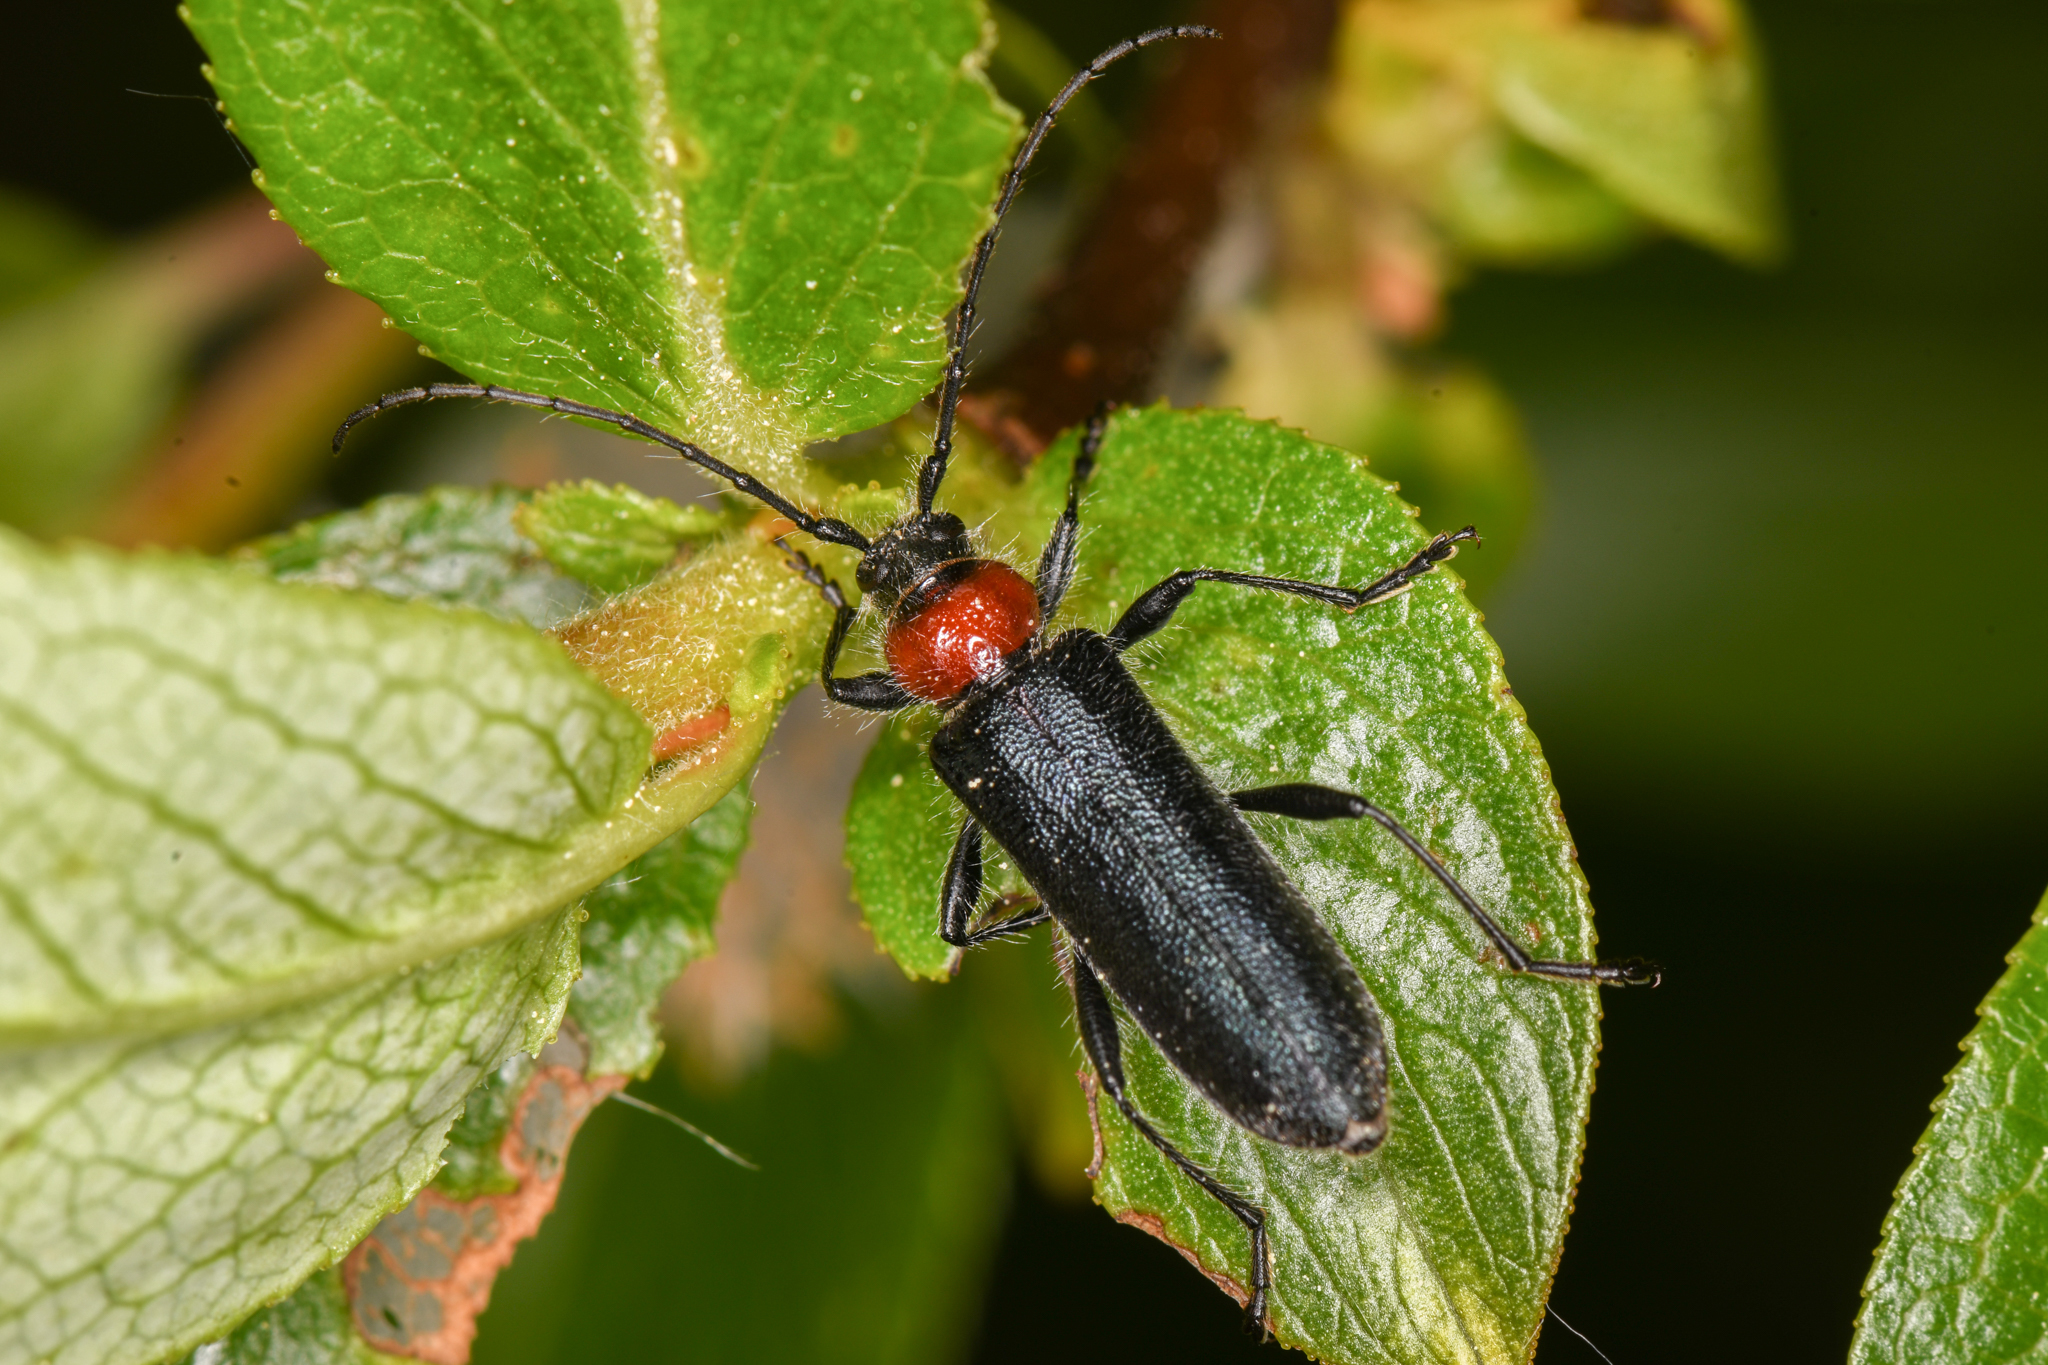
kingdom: Animalia
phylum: Arthropoda
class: Insecta
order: Coleoptera
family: Cerambycidae
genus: Pronocera
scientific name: Pronocera collaris
